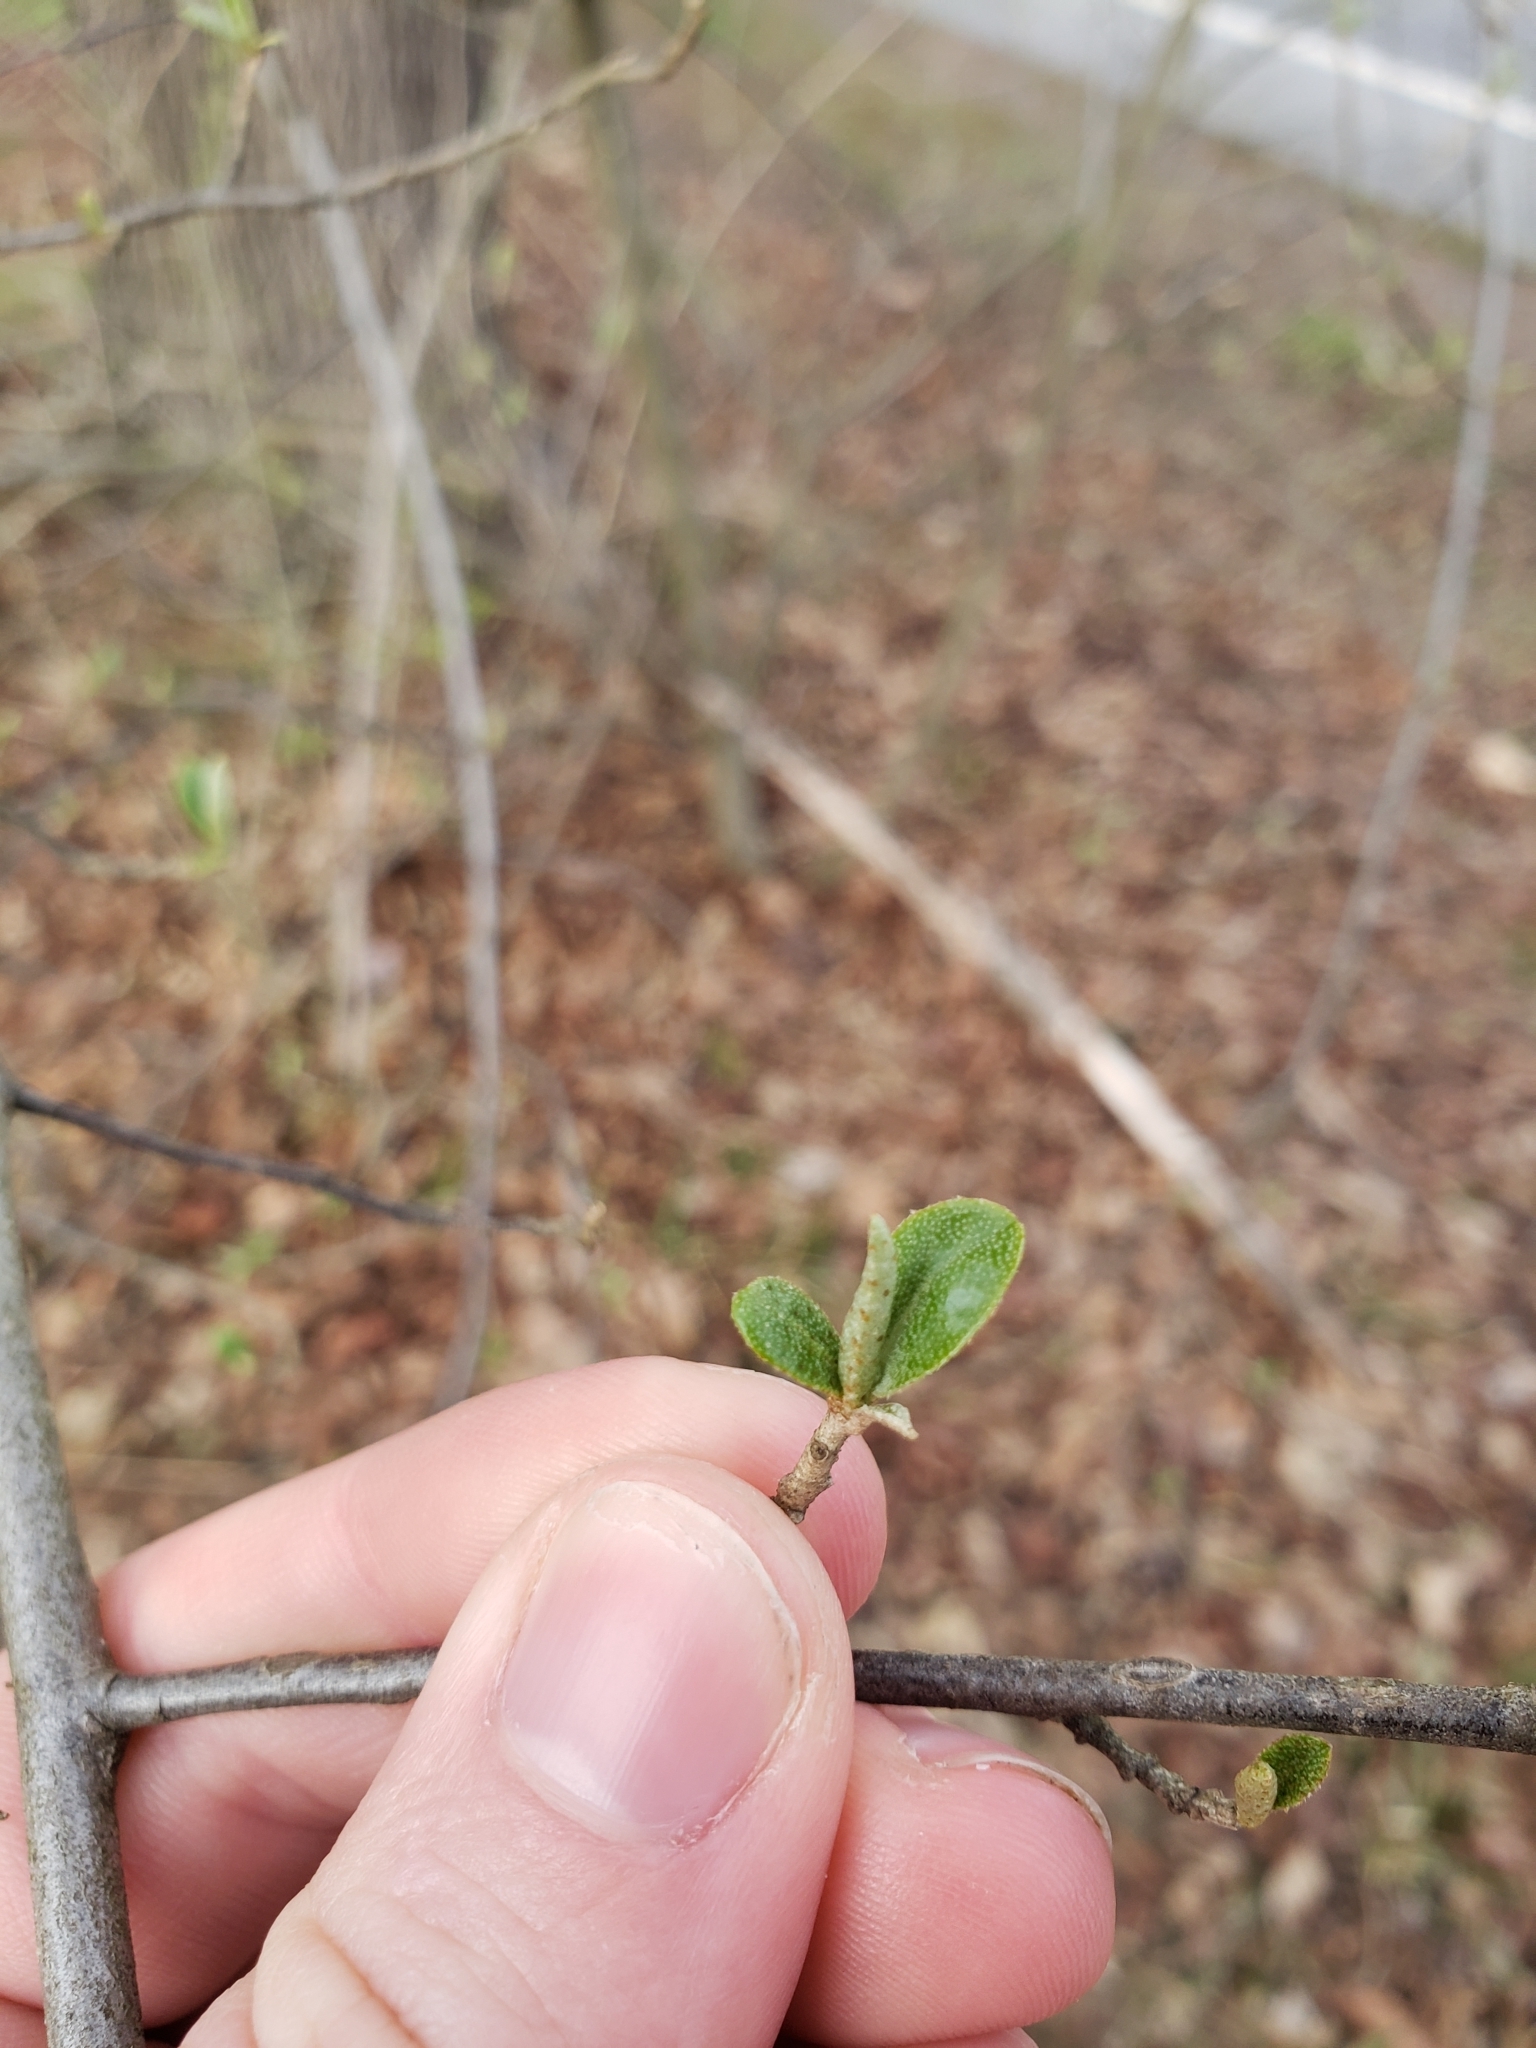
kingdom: Plantae
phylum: Tracheophyta
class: Magnoliopsida
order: Rosales
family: Elaeagnaceae
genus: Elaeagnus
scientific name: Elaeagnus umbellata
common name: Autumn olive
